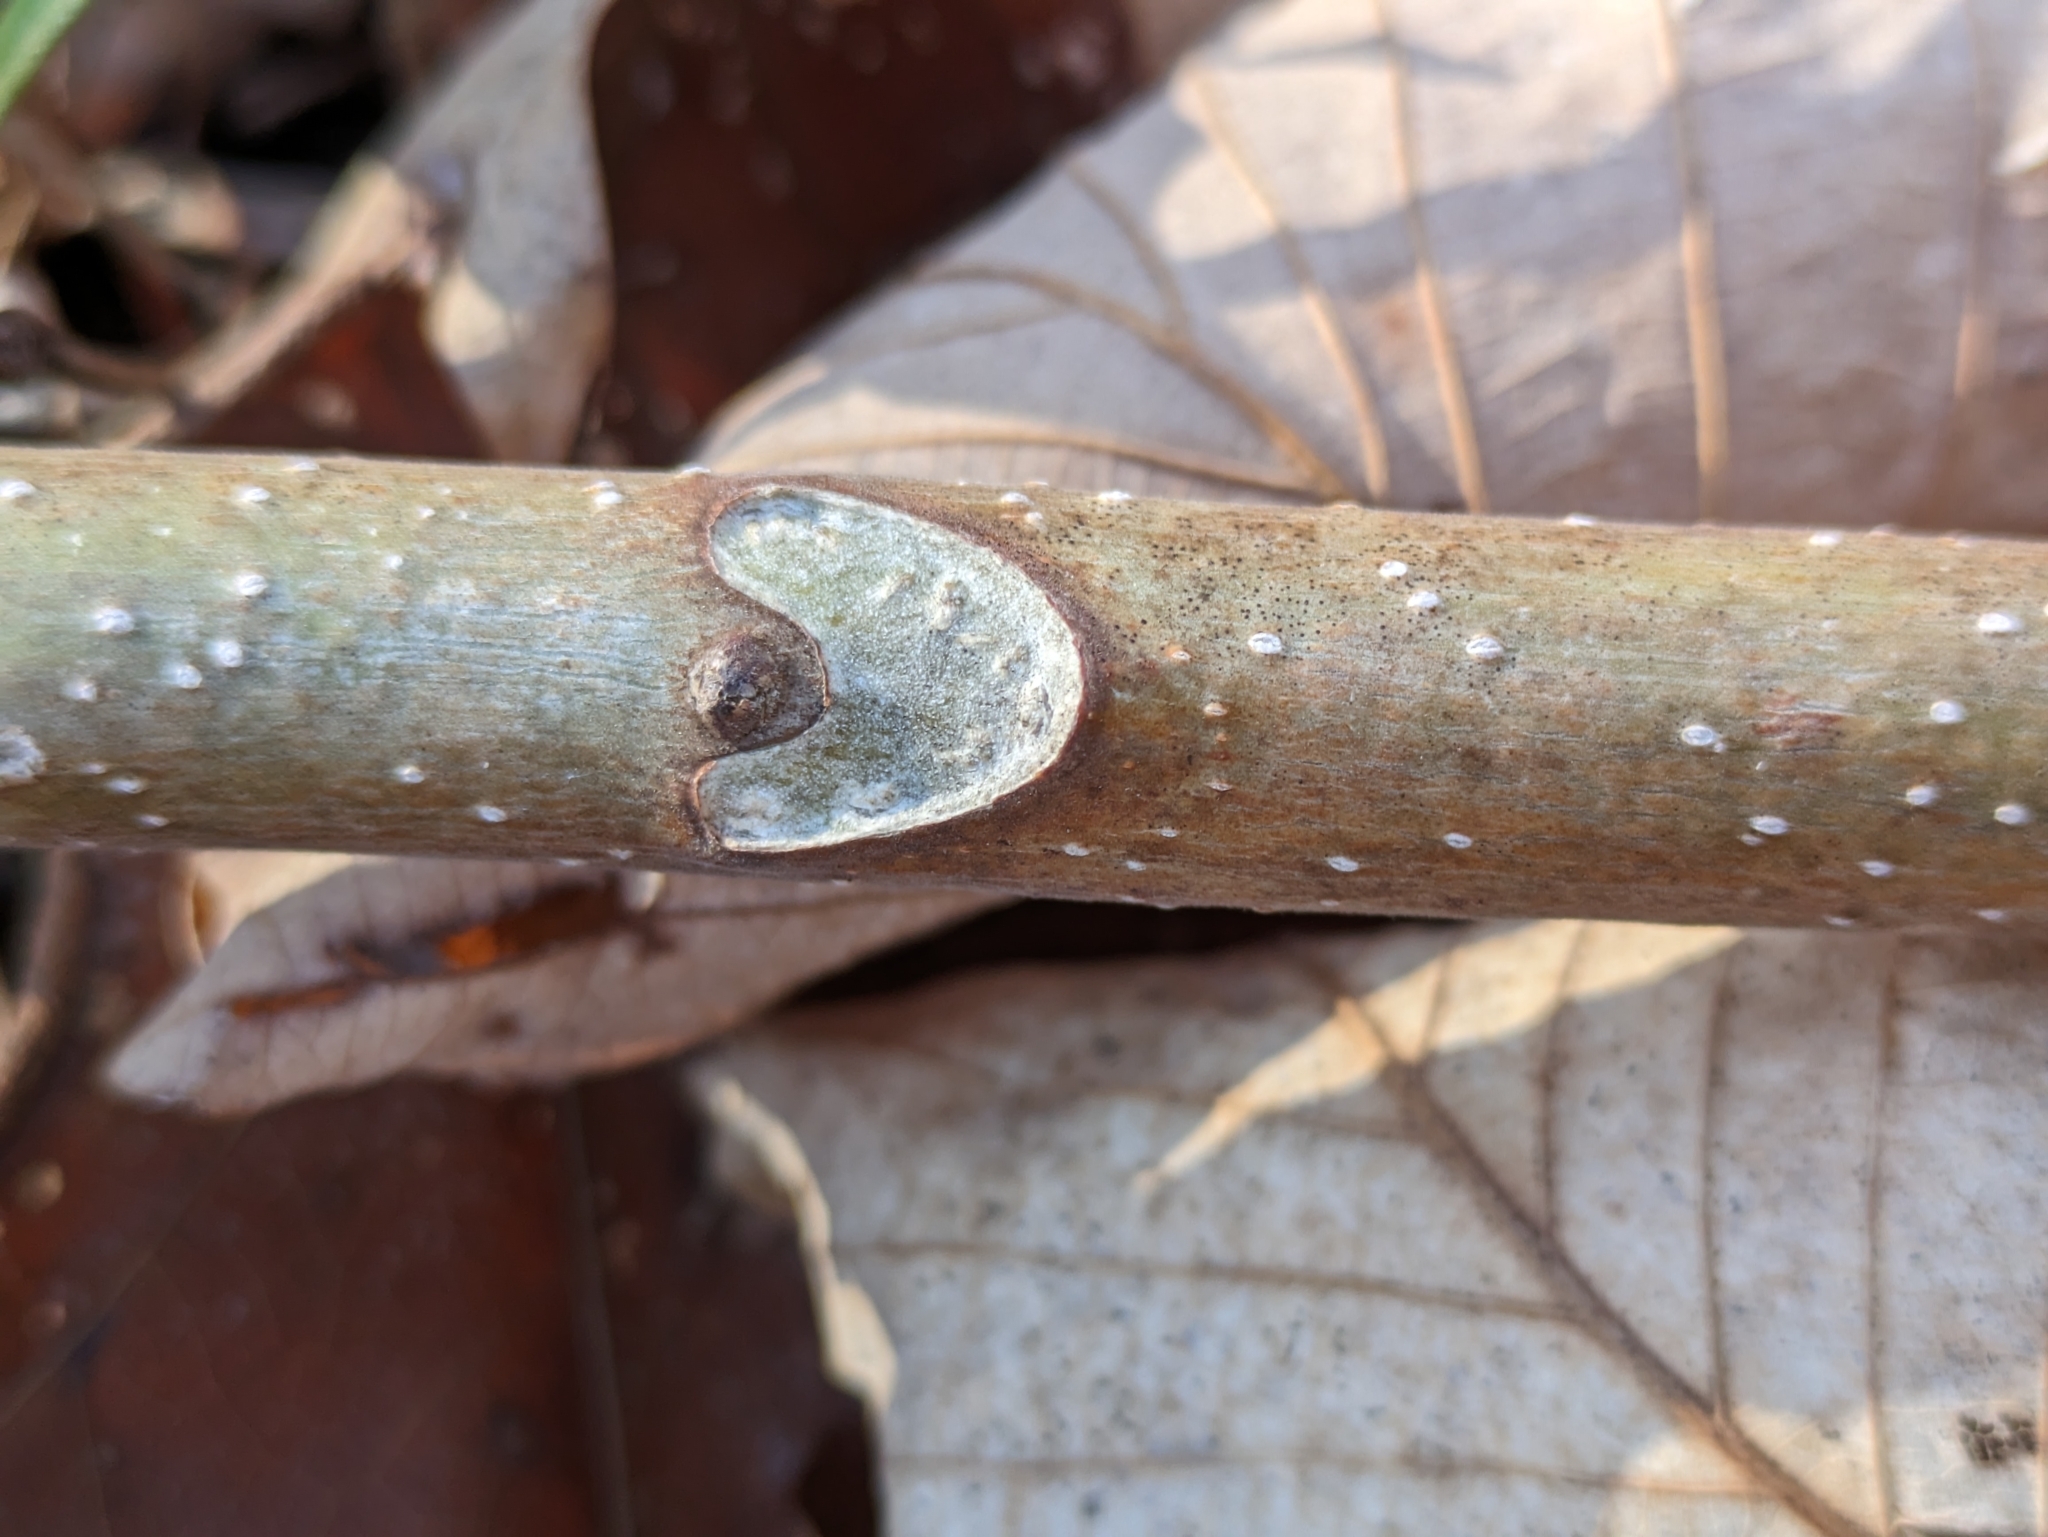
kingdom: Plantae
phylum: Tracheophyta
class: Magnoliopsida
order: Sapindales
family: Simaroubaceae
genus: Ailanthus
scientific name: Ailanthus altissima
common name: Tree-of-heaven
